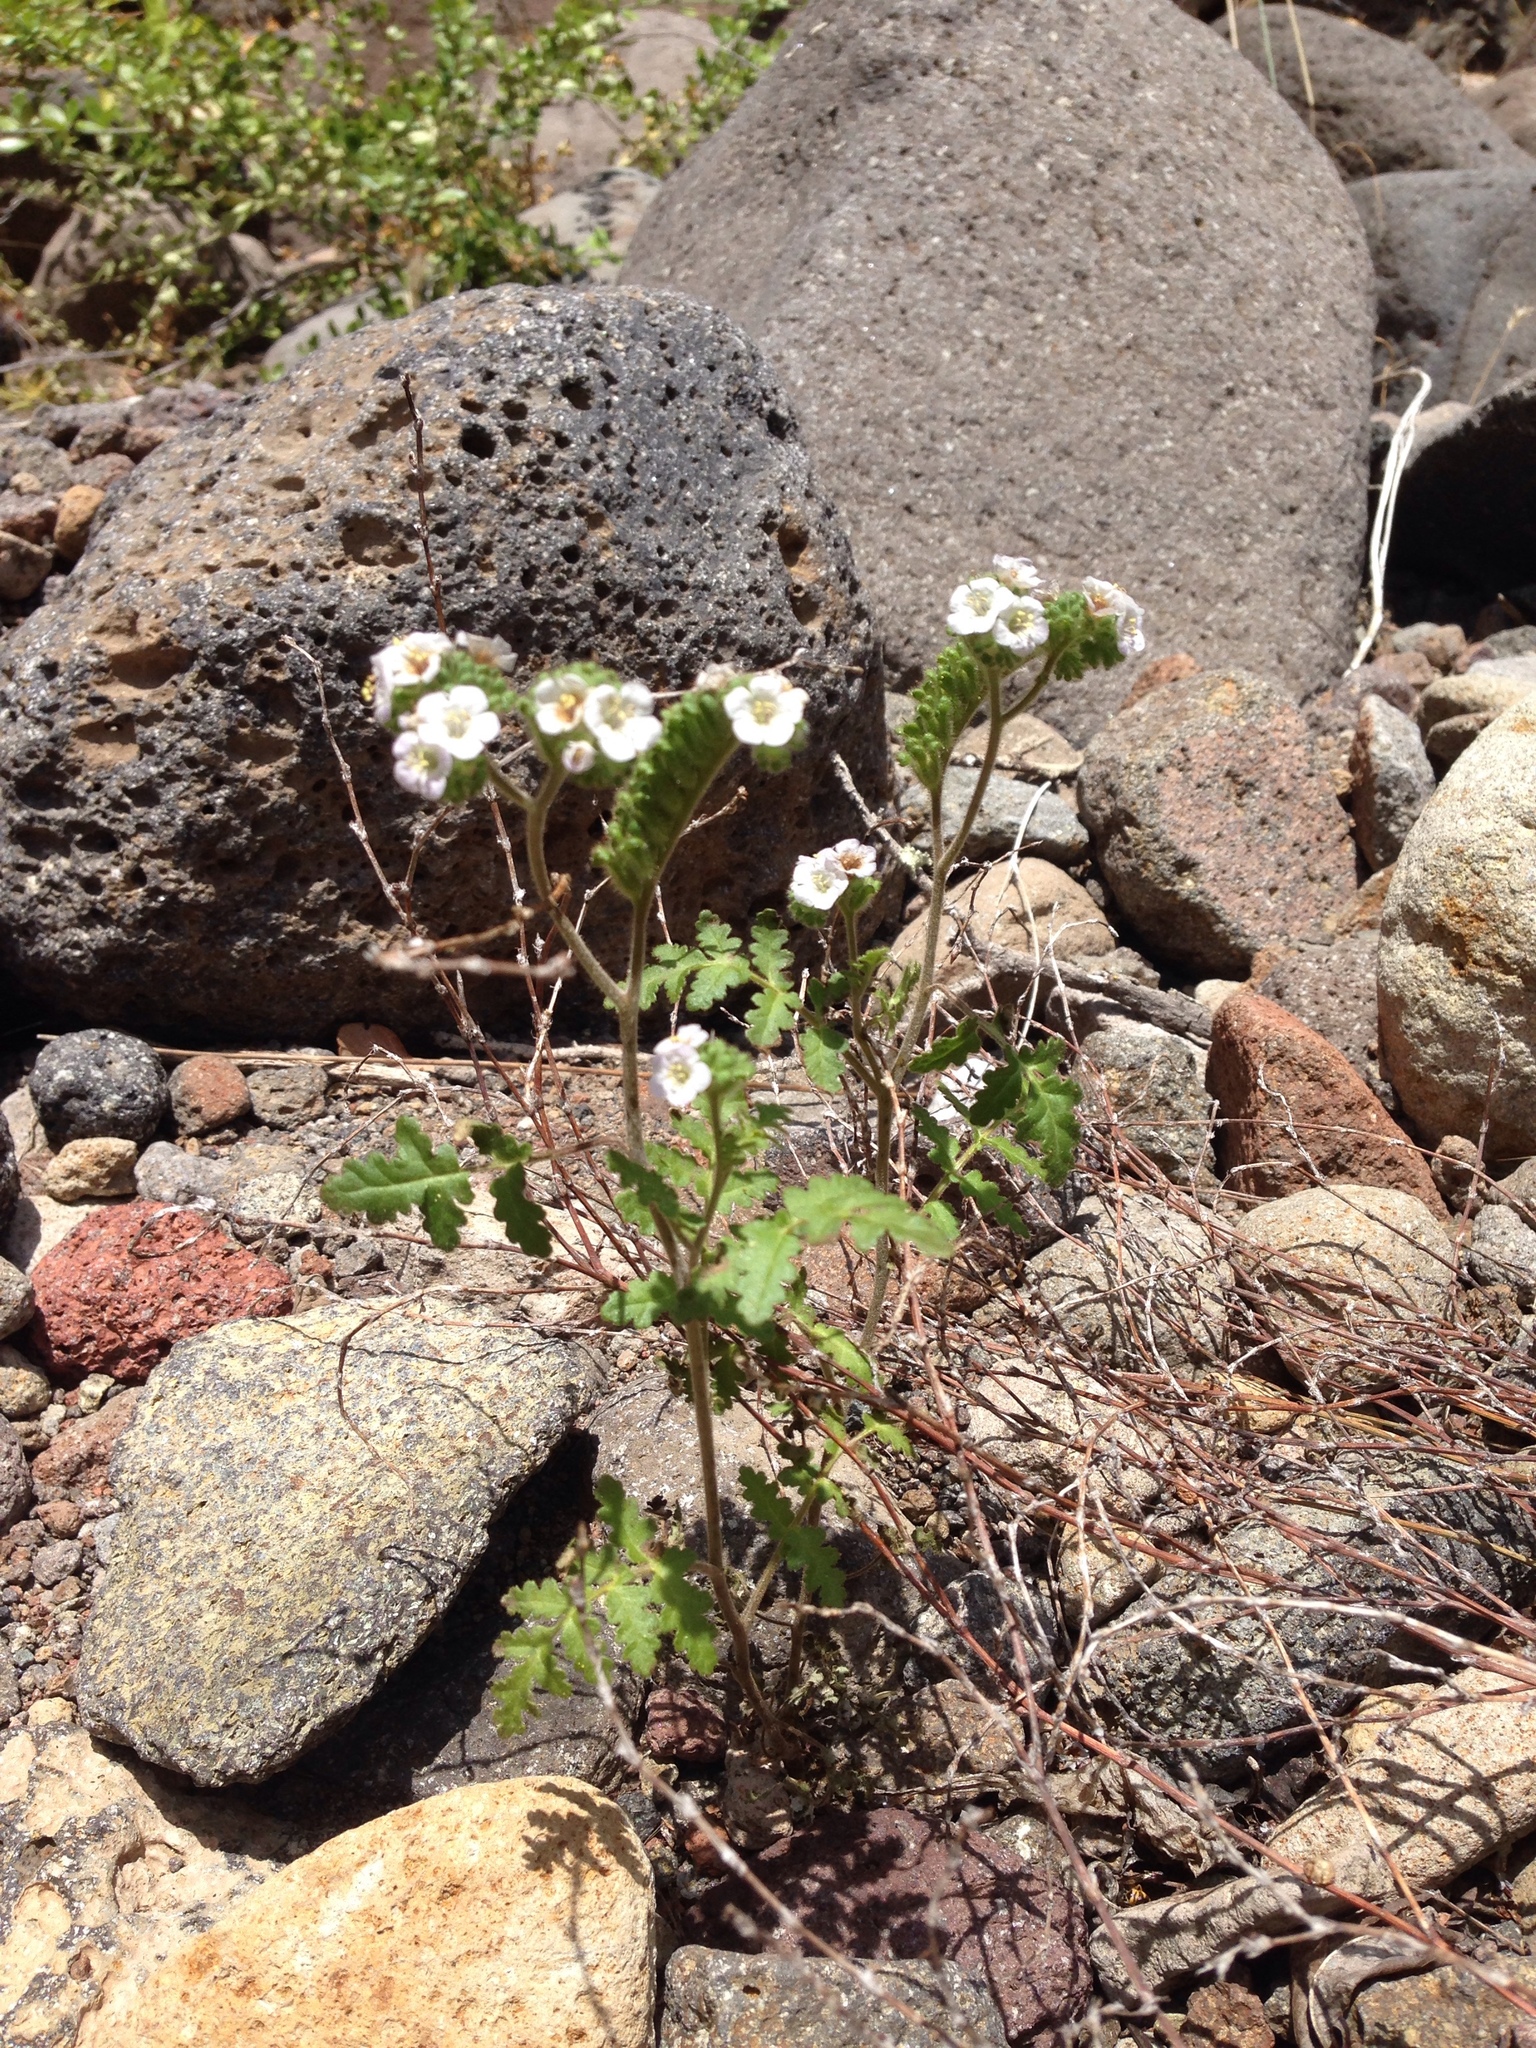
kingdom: Plantae
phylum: Tracheophyta
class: Magnoliopsida
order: Boraginales
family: Hydrophyllaceae
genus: Phacelia
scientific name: Phacelia lyonii
